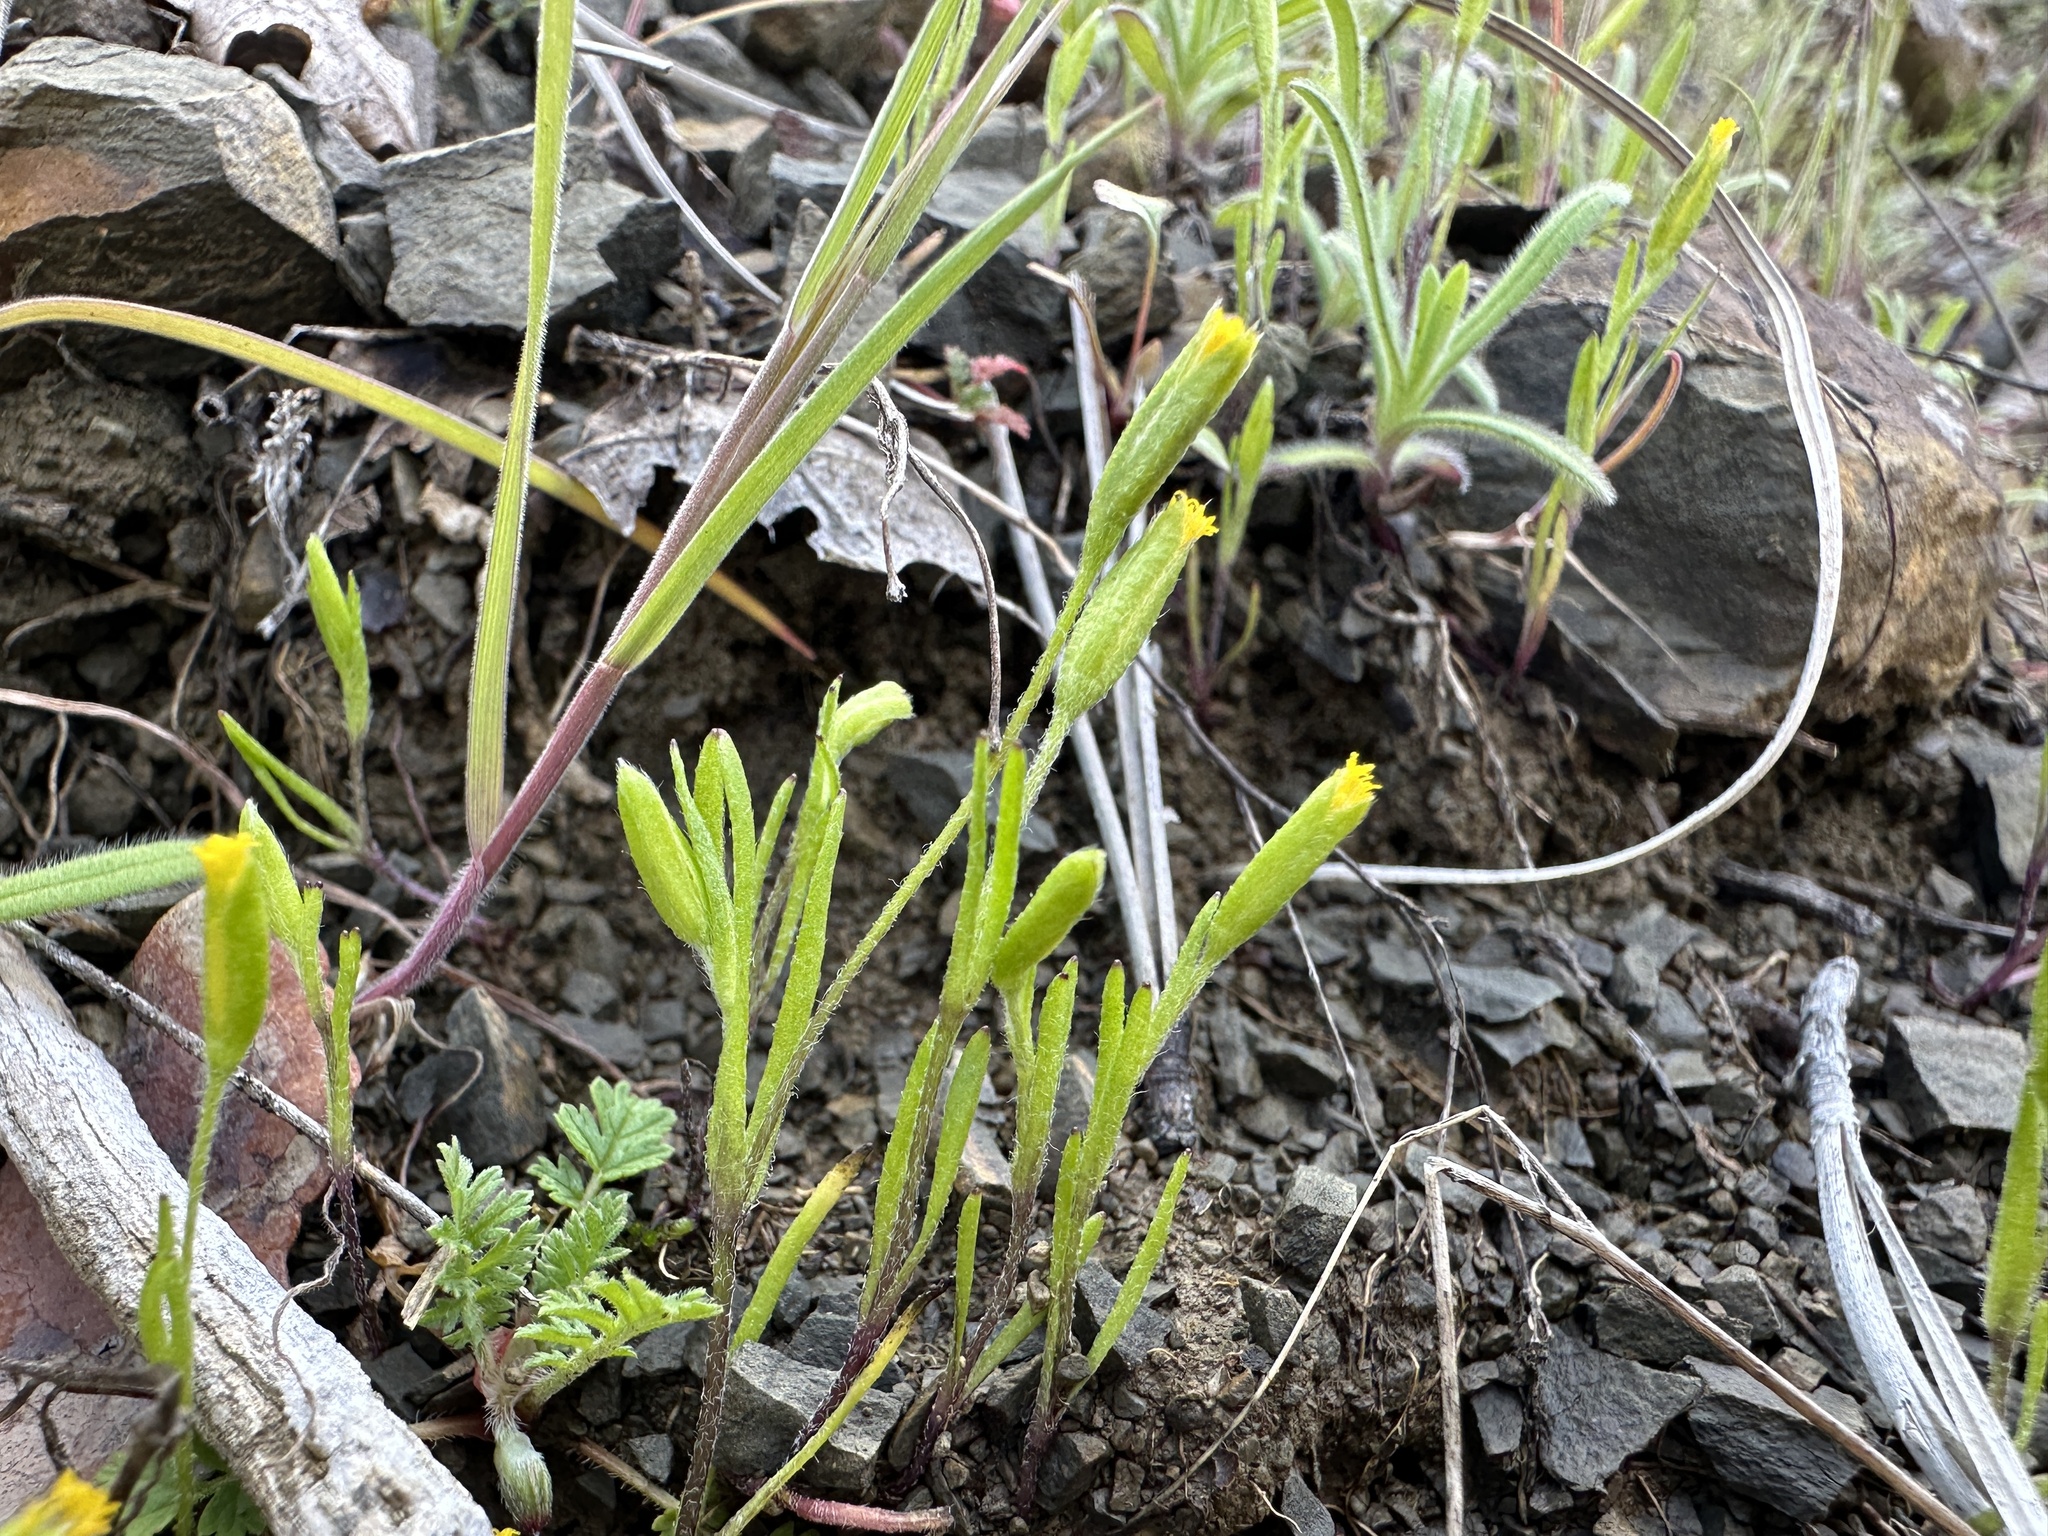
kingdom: Plantae
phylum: Tracheophyta
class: Magnoliopsida
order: Asterales
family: Asteraceae
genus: Lasthenia
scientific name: Lasthenia microglossa
